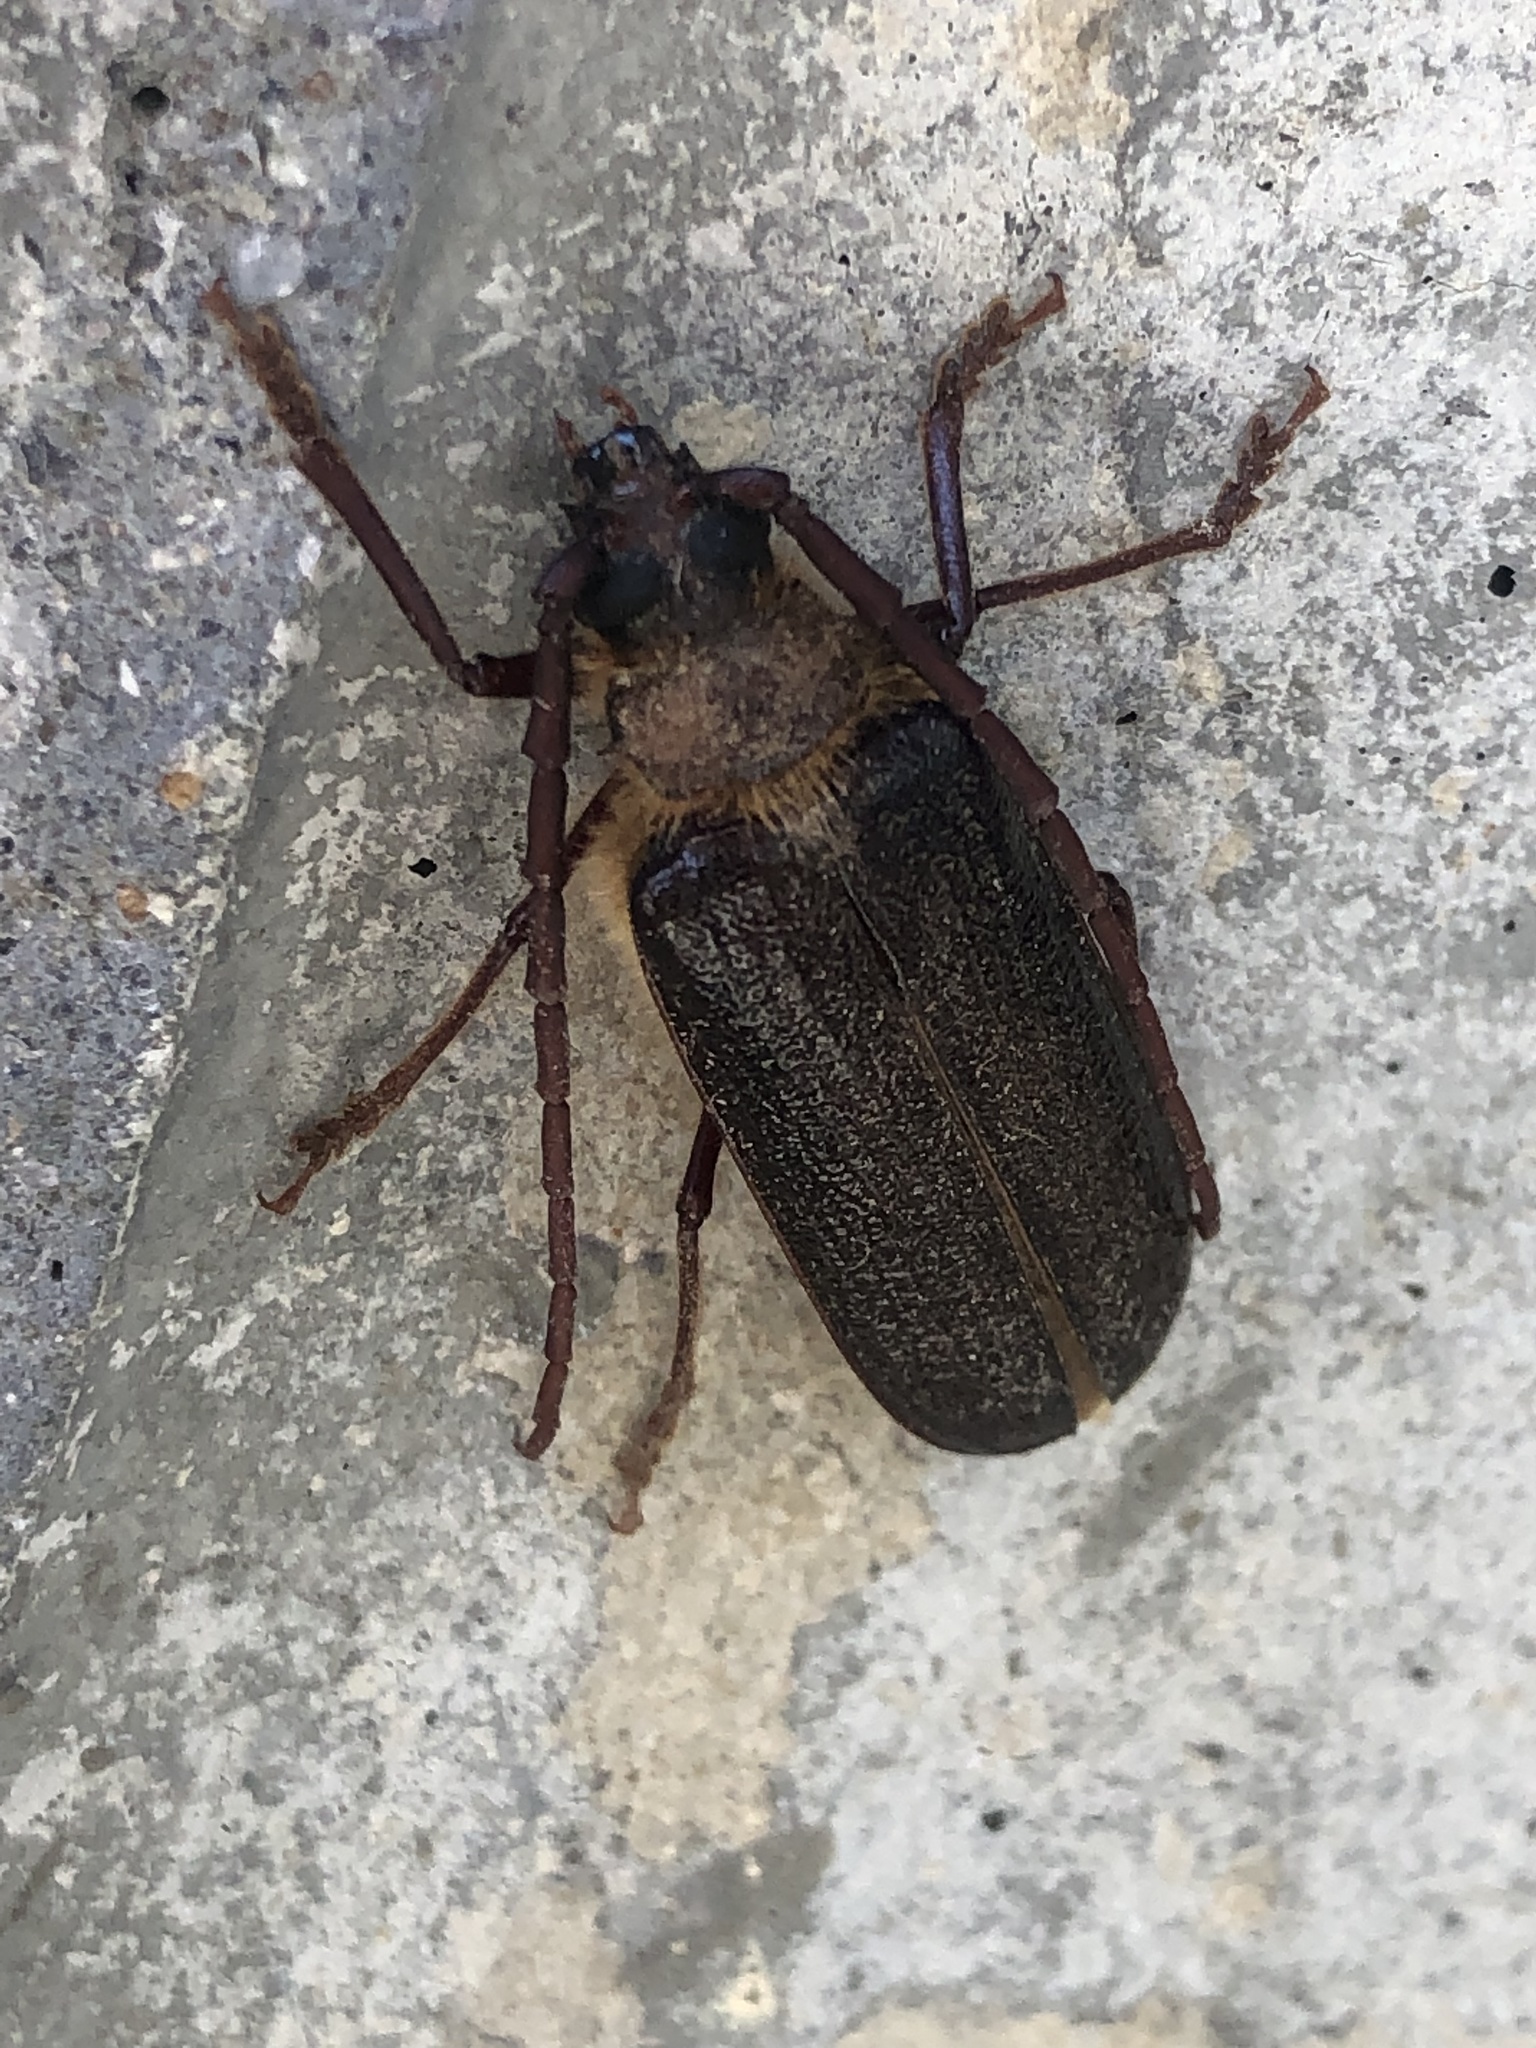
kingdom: Animalia
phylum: Arthropoda
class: Insecta
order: Coleoptera
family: Cerambycidae
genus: Tragosoma
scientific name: Tragosoma harrisii
